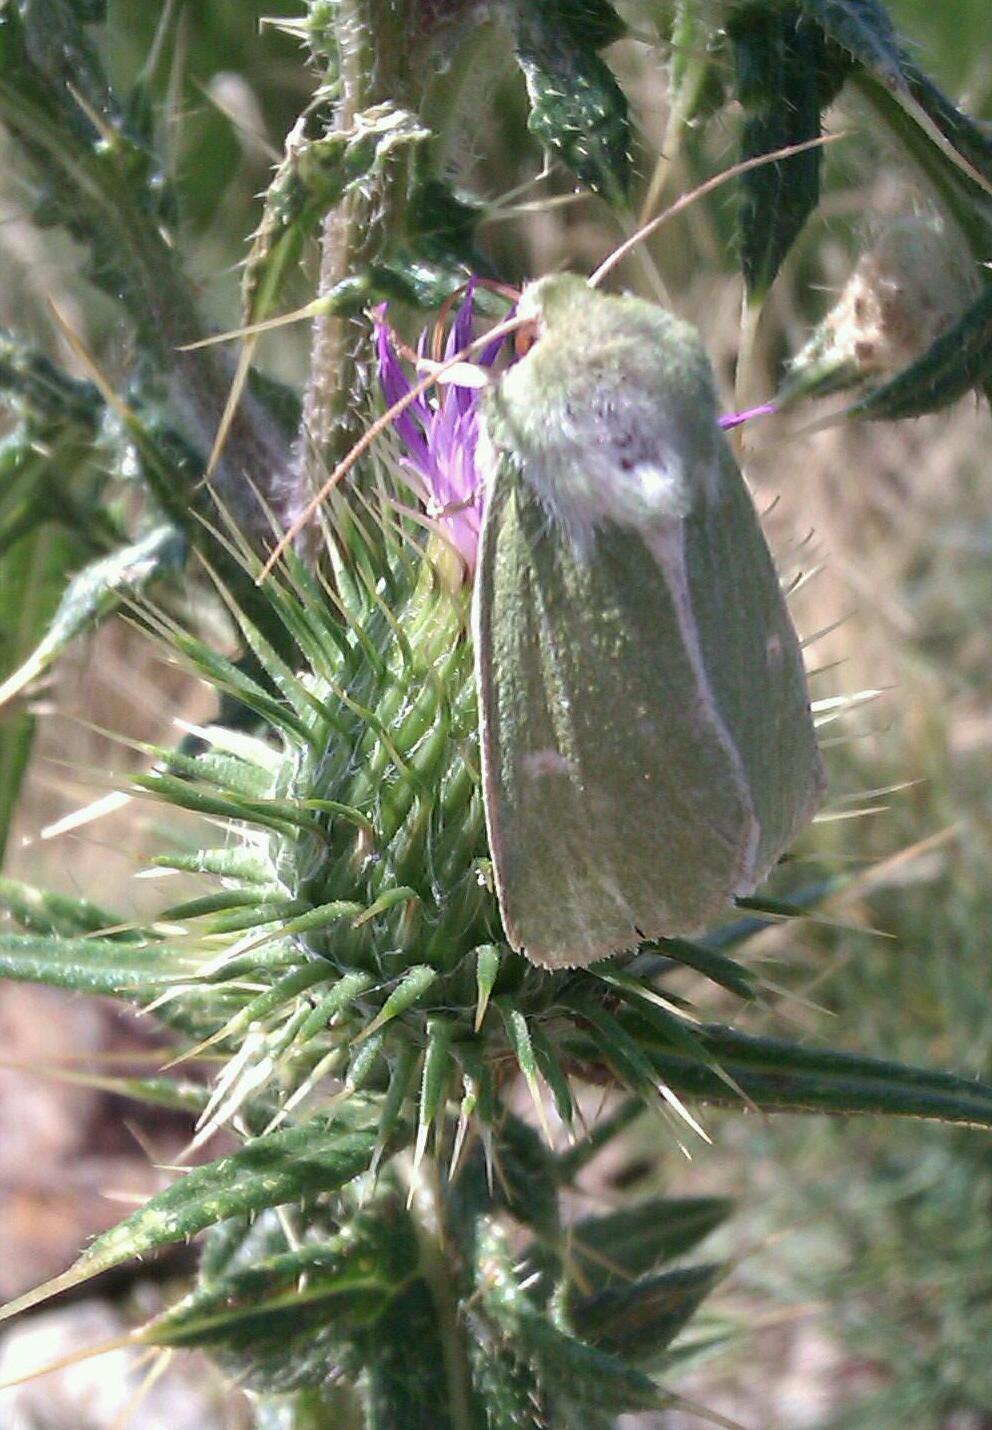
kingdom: Animalia
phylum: Arthropoda
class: Insecta
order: Lepidoptera
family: Noctuidae
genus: Calamia
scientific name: Calamia tridens
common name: Burren green
